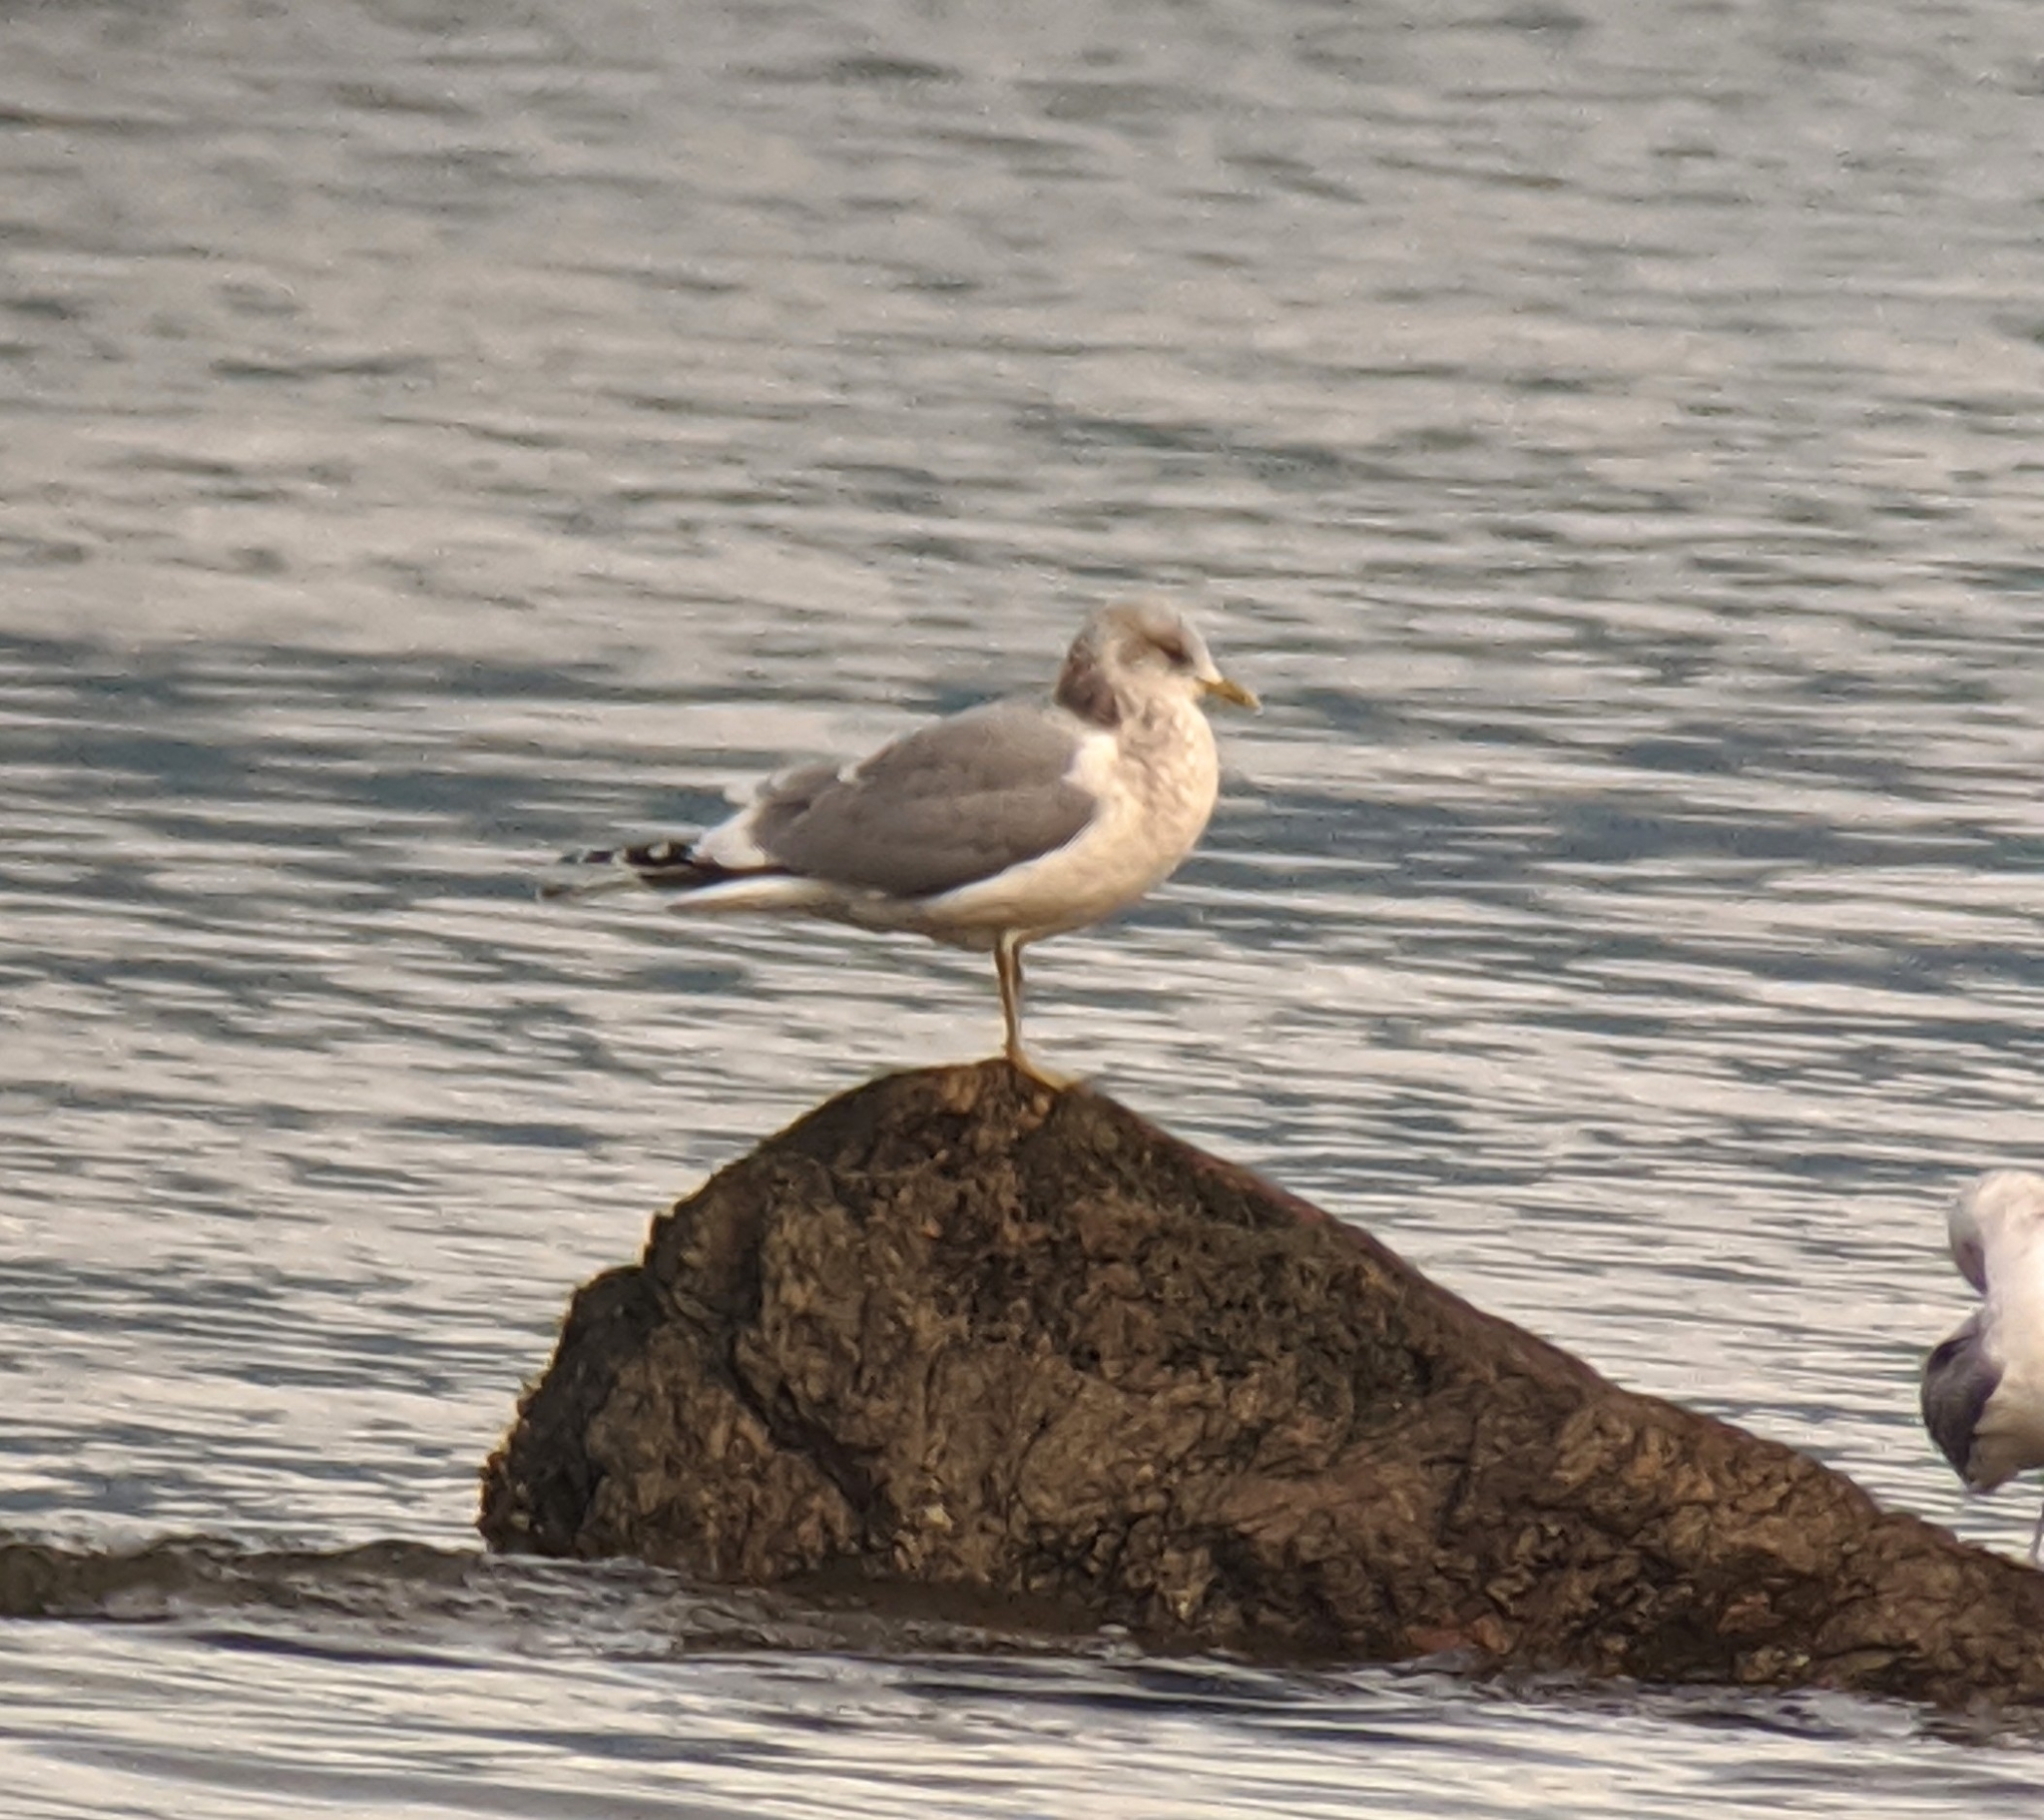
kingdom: Animalia
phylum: Chordata
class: Aves
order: Charadriiformes
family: Laridae
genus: Larus
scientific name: Larus brachyrhynchus
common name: Short-billed gull
